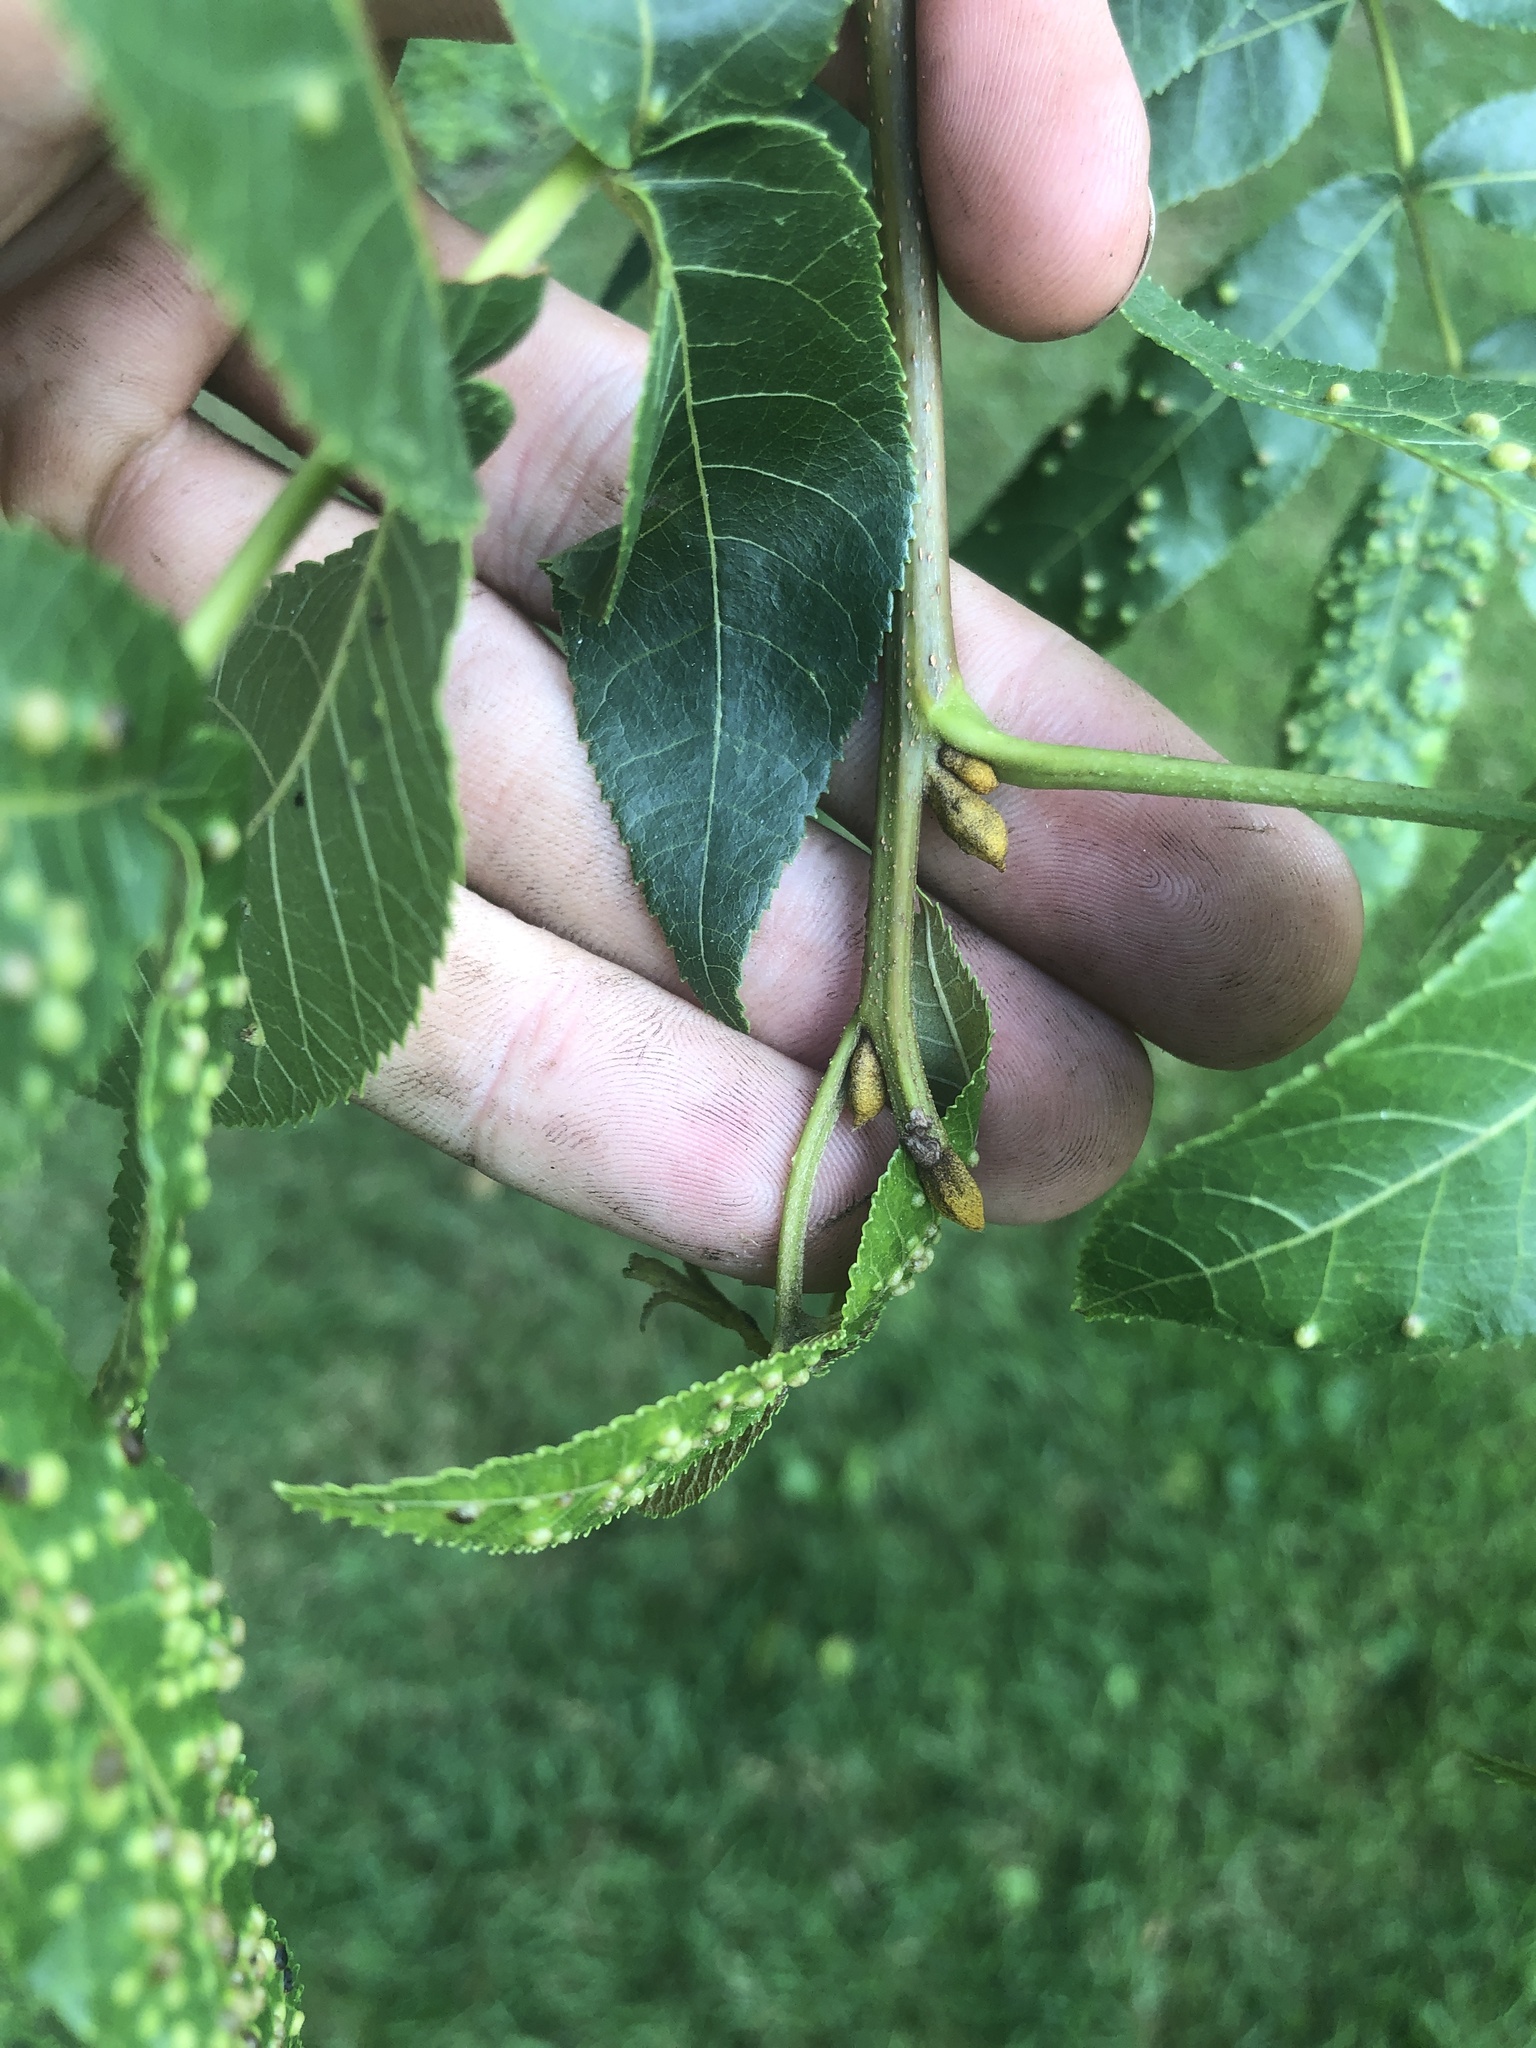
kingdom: Plantae
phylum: Tracheophyta
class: Magnoliopsida
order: Fagales
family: Juglandaceae
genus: Carya
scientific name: Carya cordiformis
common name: Bitternut hickory
